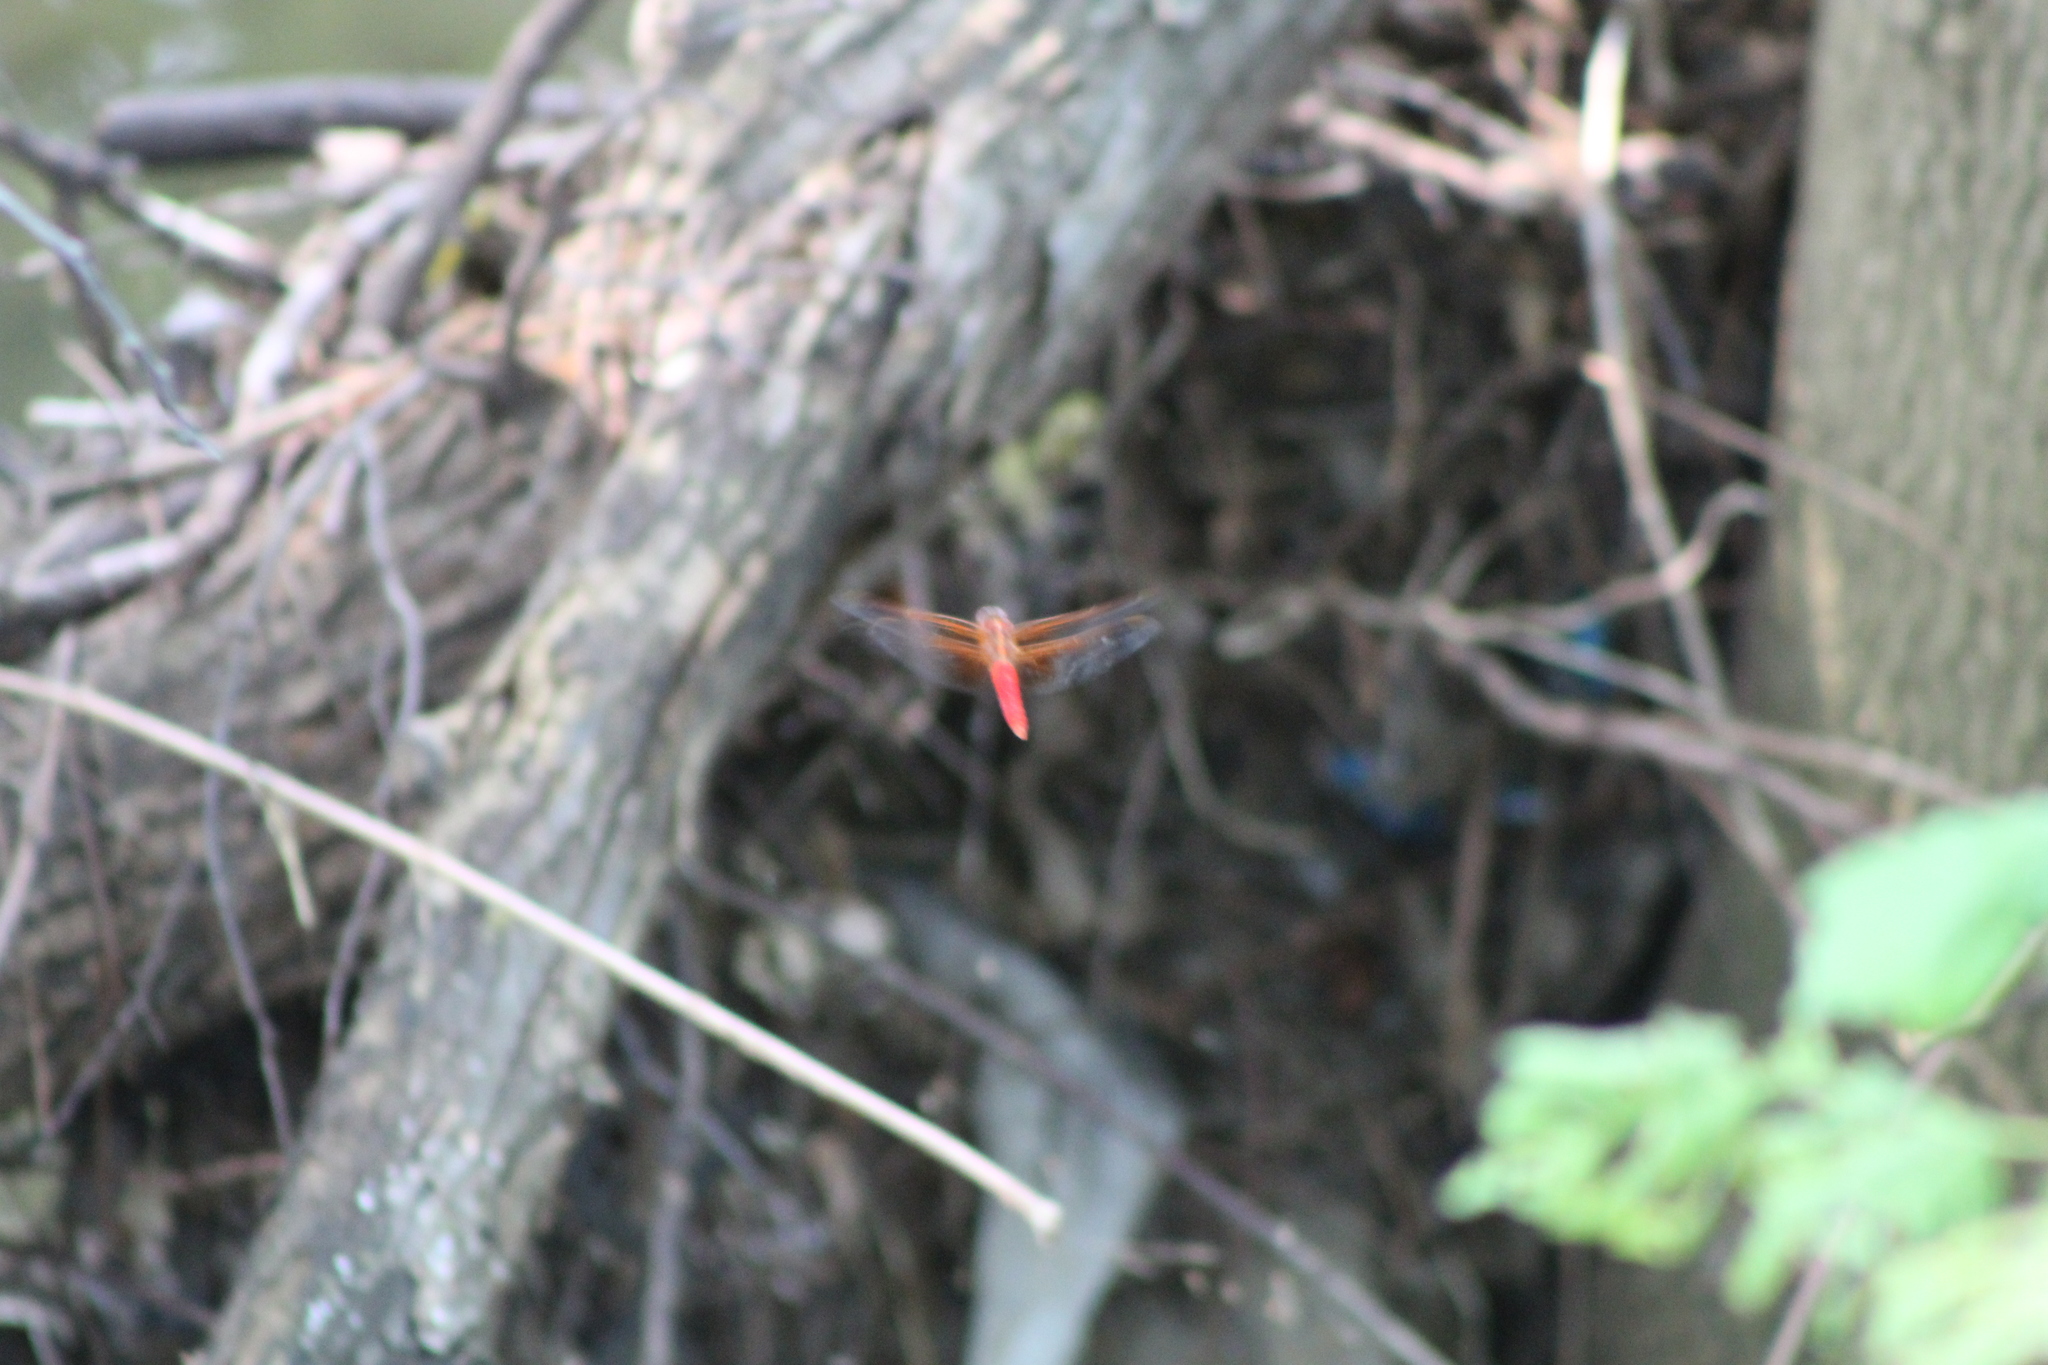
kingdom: Animalia
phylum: Arthropoda
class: Insecta
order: Odonata
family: Libellulidae
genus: Libellula
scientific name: Libellula croceipennis
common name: Neon skimmer
